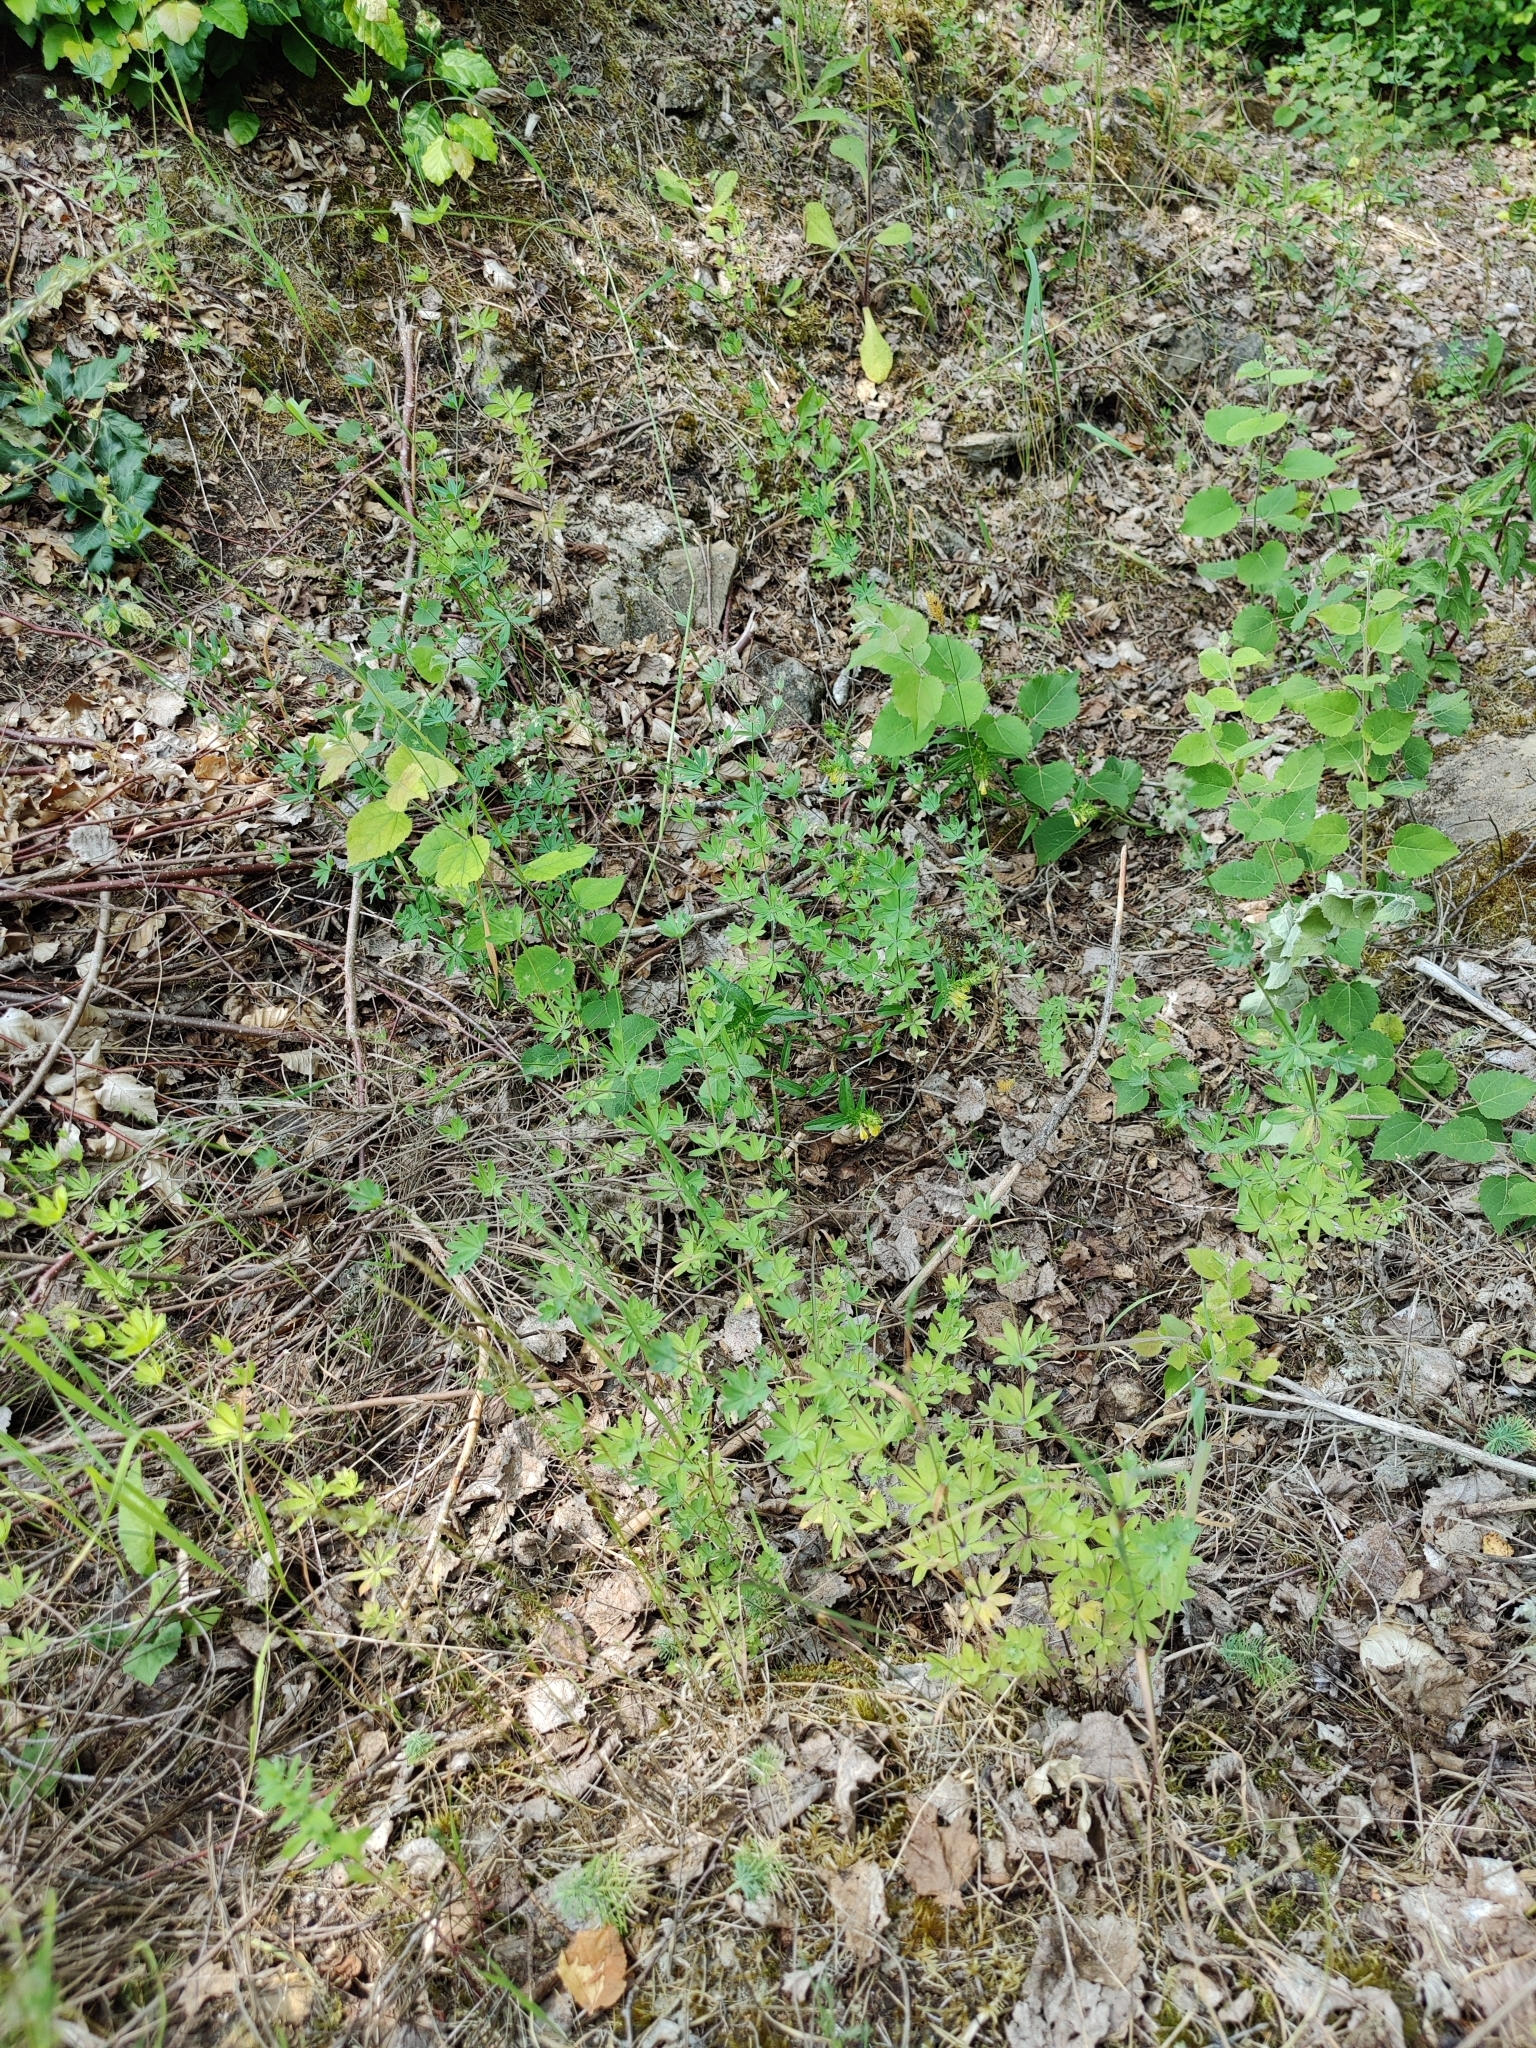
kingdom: Plantae
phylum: Tracheophyta
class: Magnoliopsida
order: Gentianales
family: Rubiaceae
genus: Galium
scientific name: Galium sylvaticum
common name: Wood bedstraw
